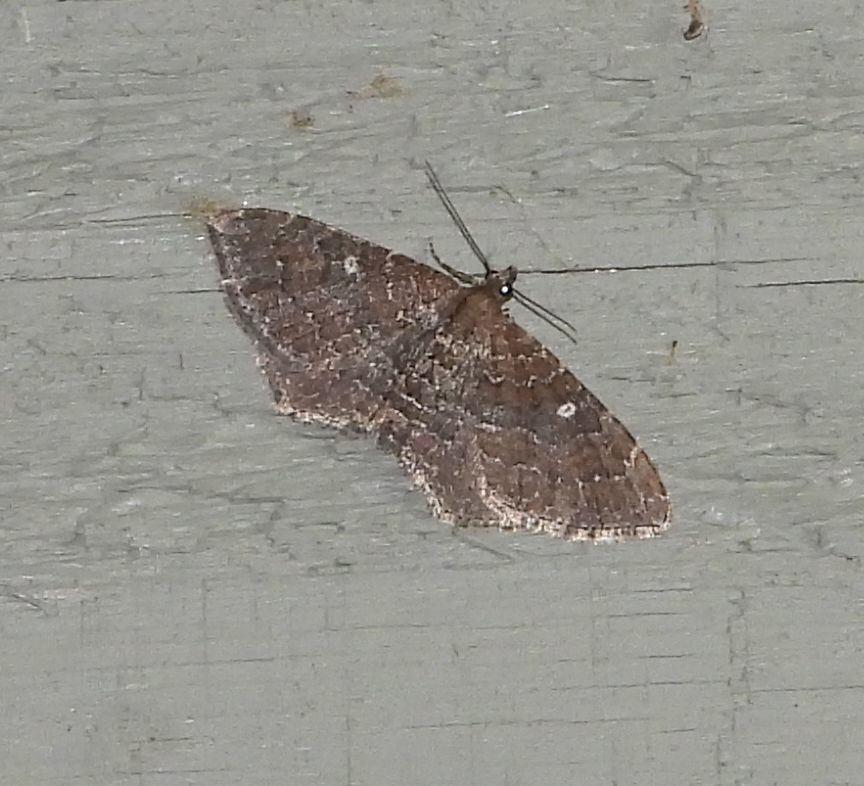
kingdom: Animalia
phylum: Arthropoda
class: Insecta
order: Lepidoptera
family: Geometridae
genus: Orthonama
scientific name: Orthonama obstipata
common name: The gem
